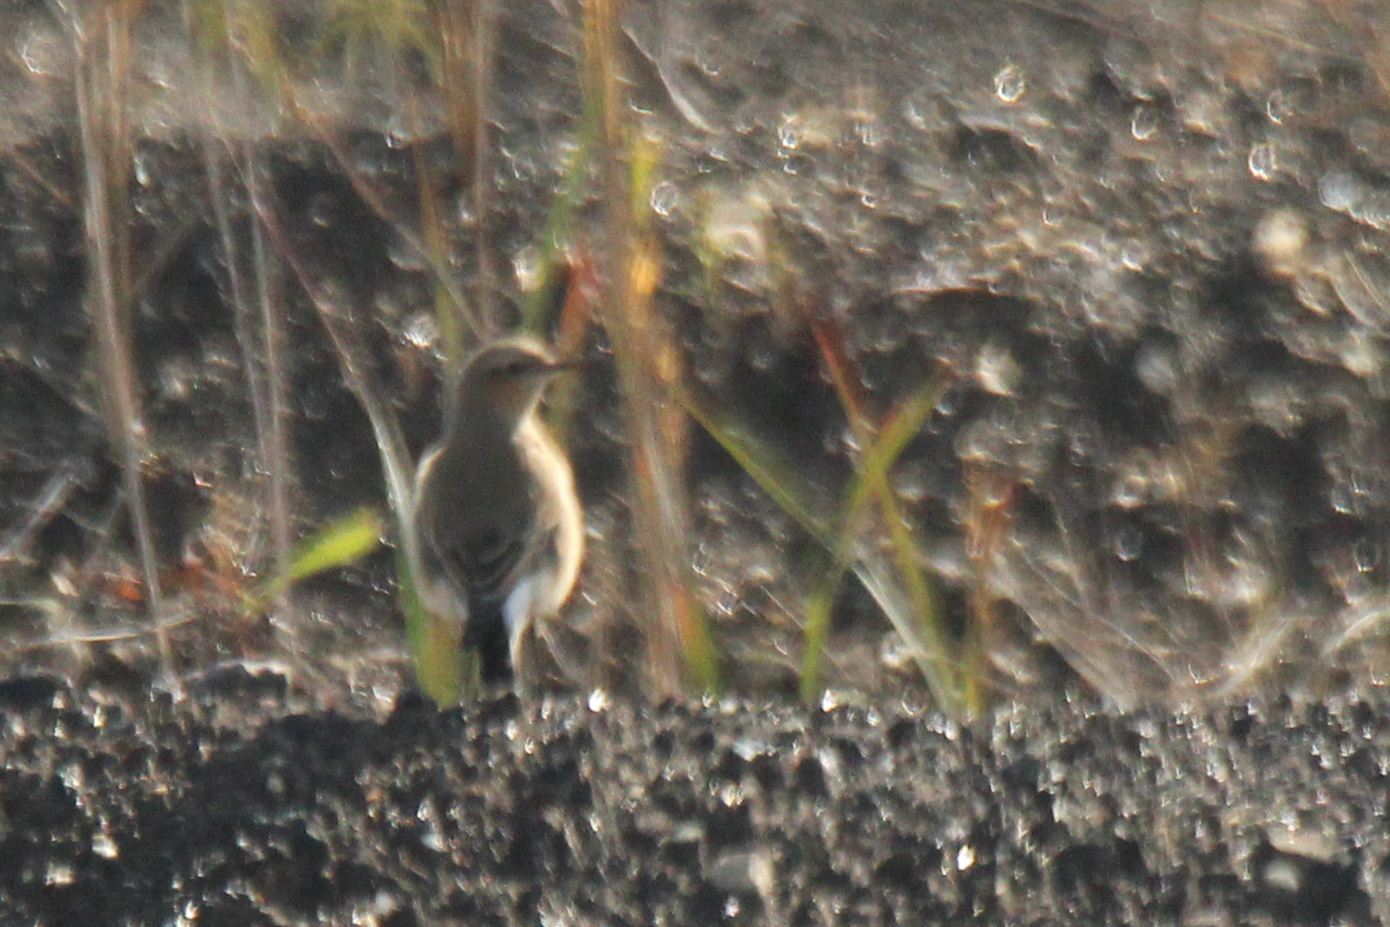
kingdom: Animalia
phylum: Chordata
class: Aves
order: Passeriformes
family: Muscicapidae
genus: Oenanthe
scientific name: Oenanthe oenanthe
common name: Northern wheatear
